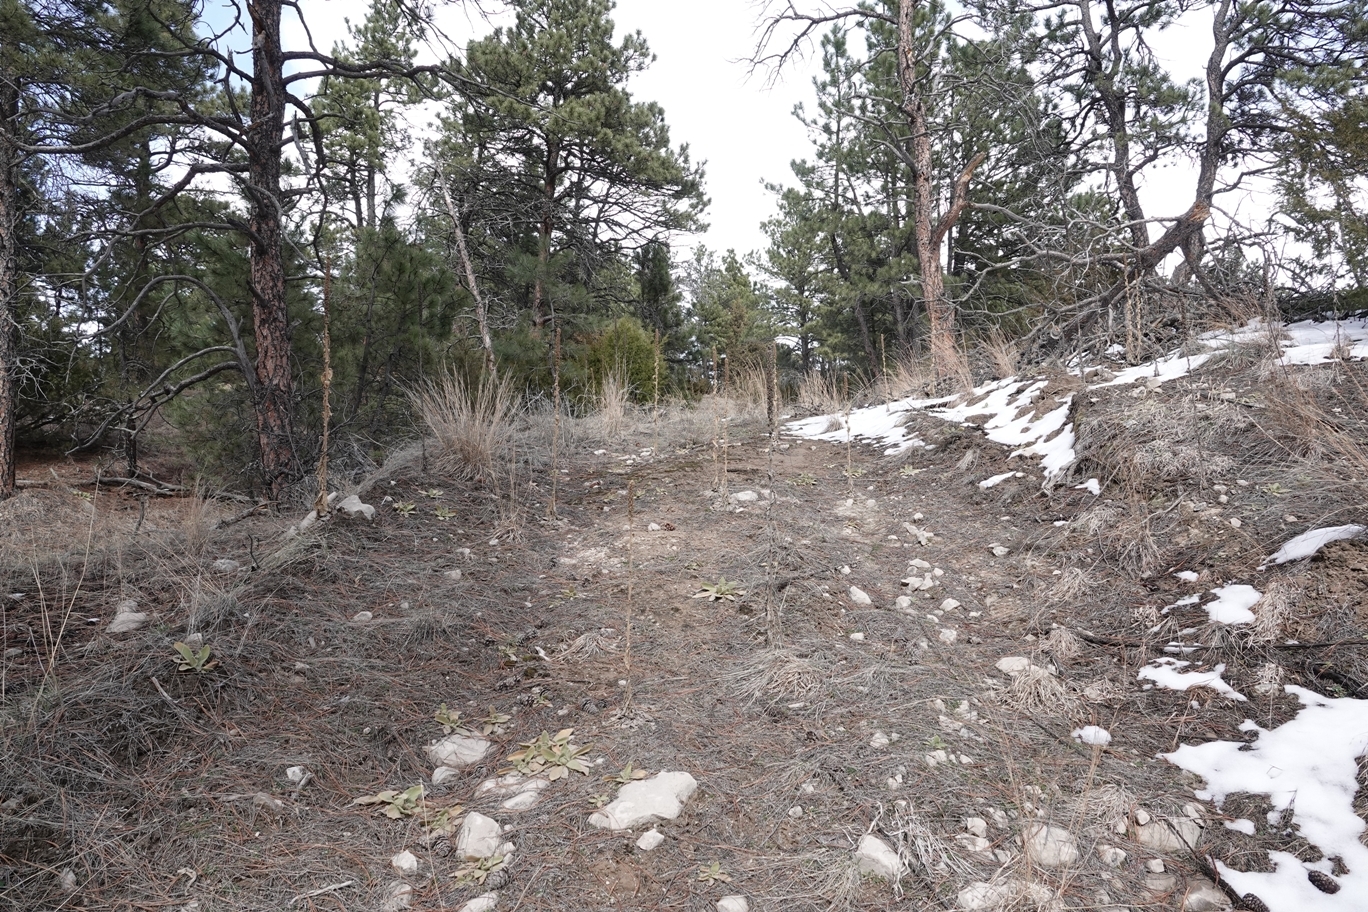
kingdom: Plantae
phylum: Tracheophyta
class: Magnoliopsida
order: Lamiales
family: Scrophulariaceae
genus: Verbascum
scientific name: Verbascum thapsus
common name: Common mullein
